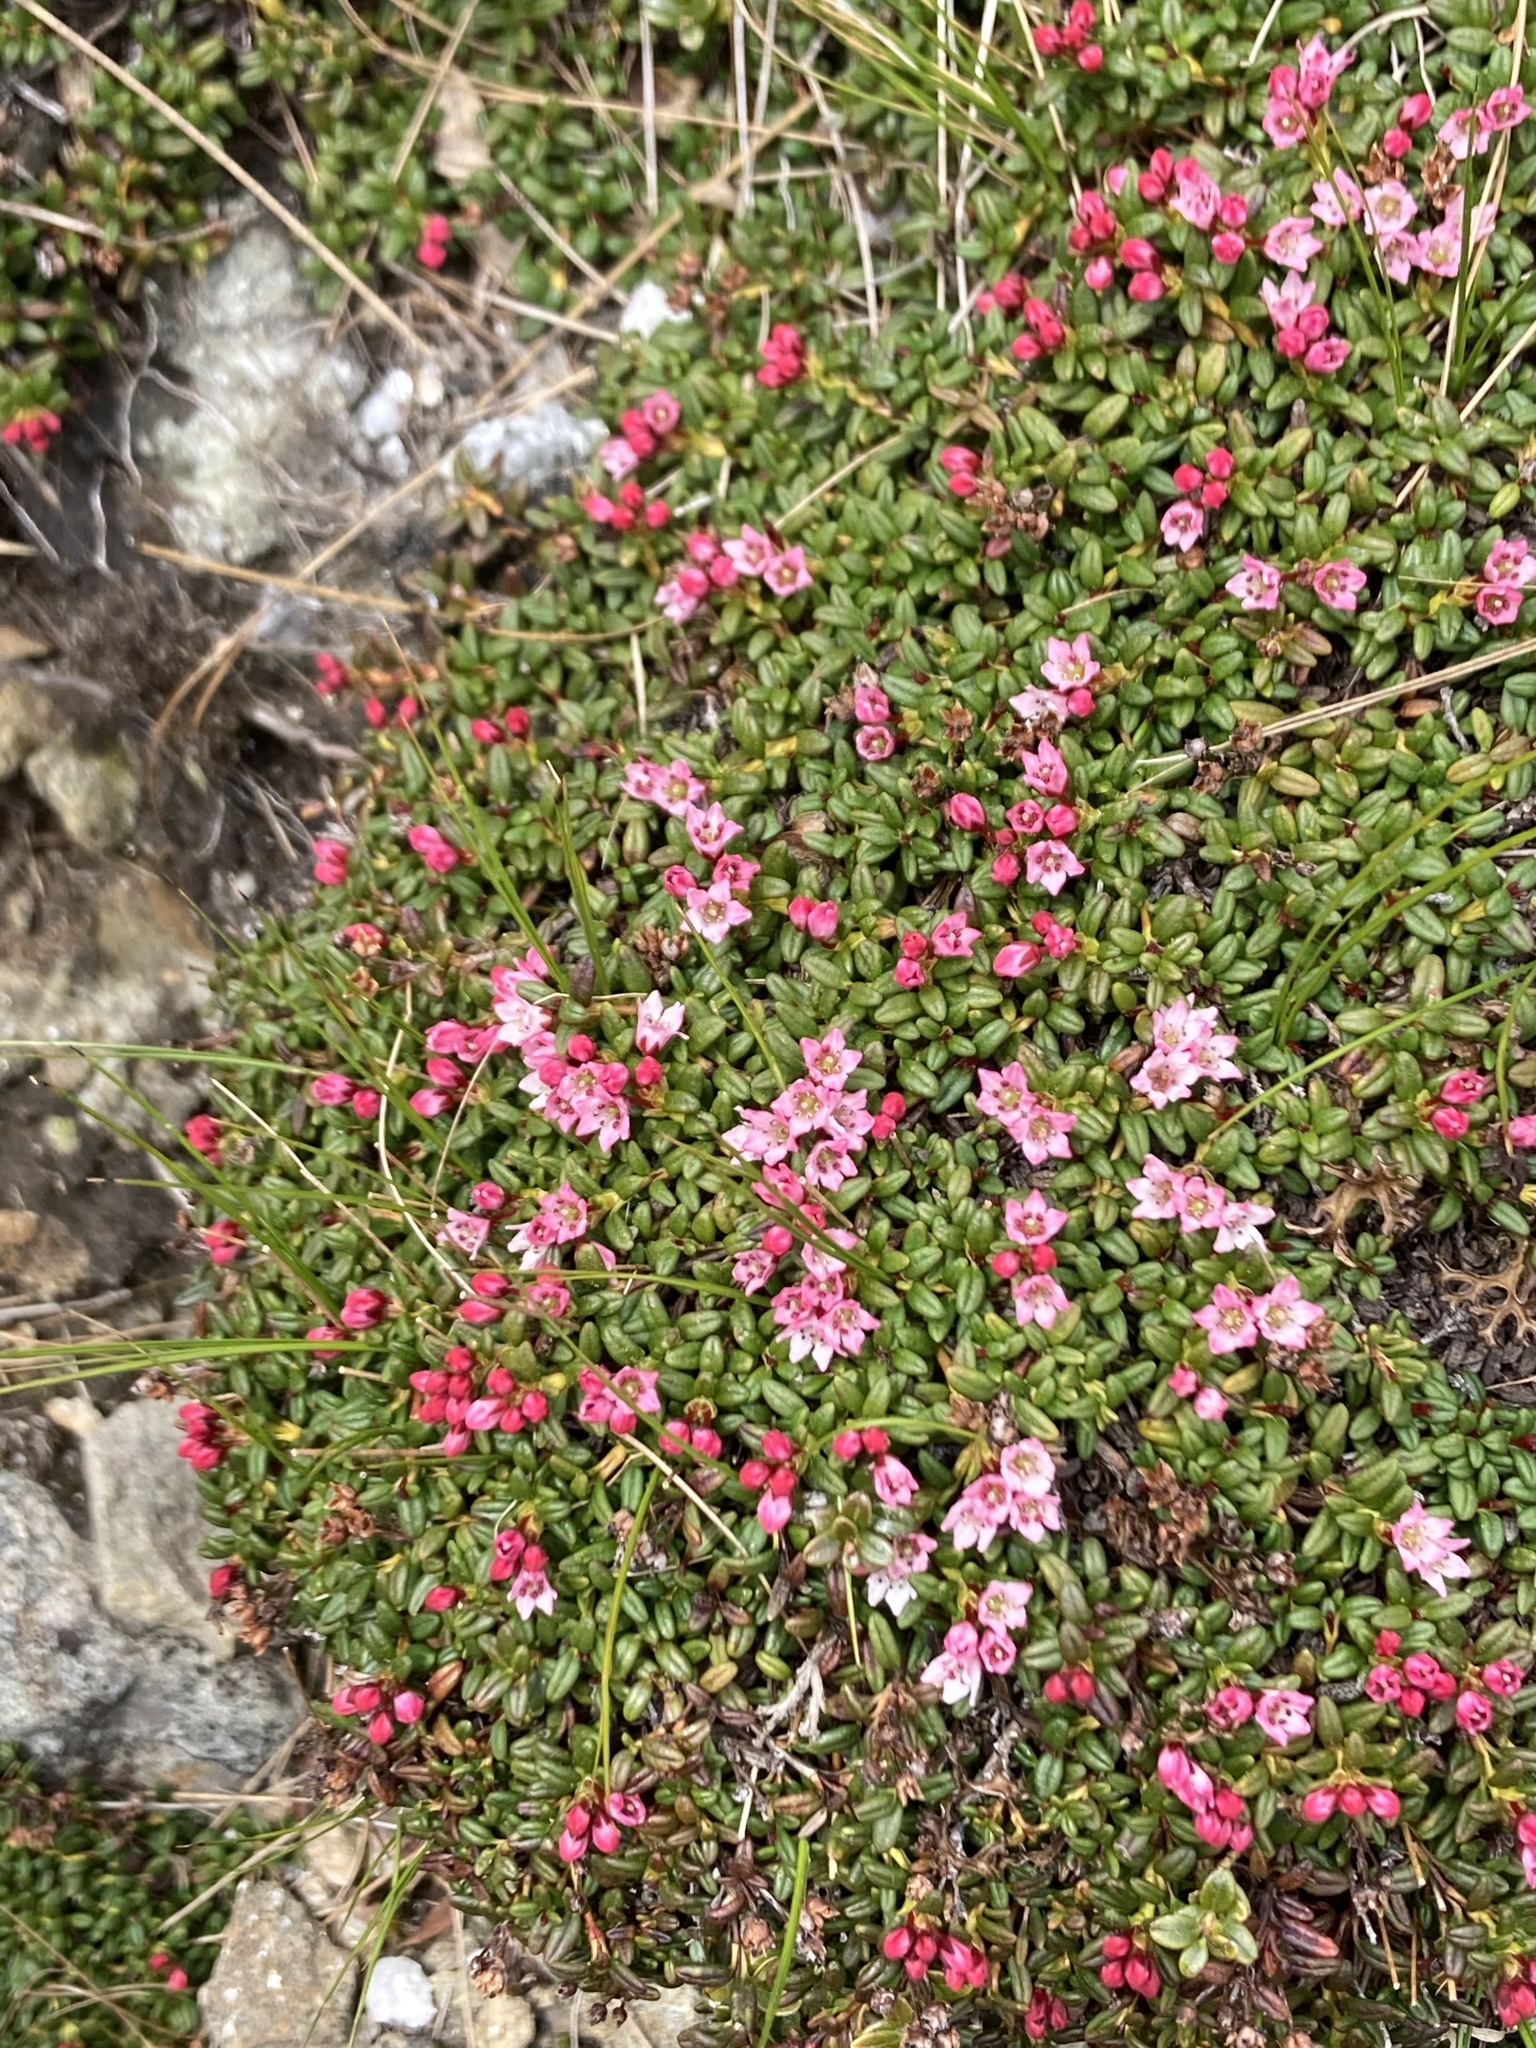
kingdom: Plantae
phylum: Tracheophyta
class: Magnoliopsida
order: Ericales
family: Ericaceae
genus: Kalmia
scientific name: Kalmia procumbens
